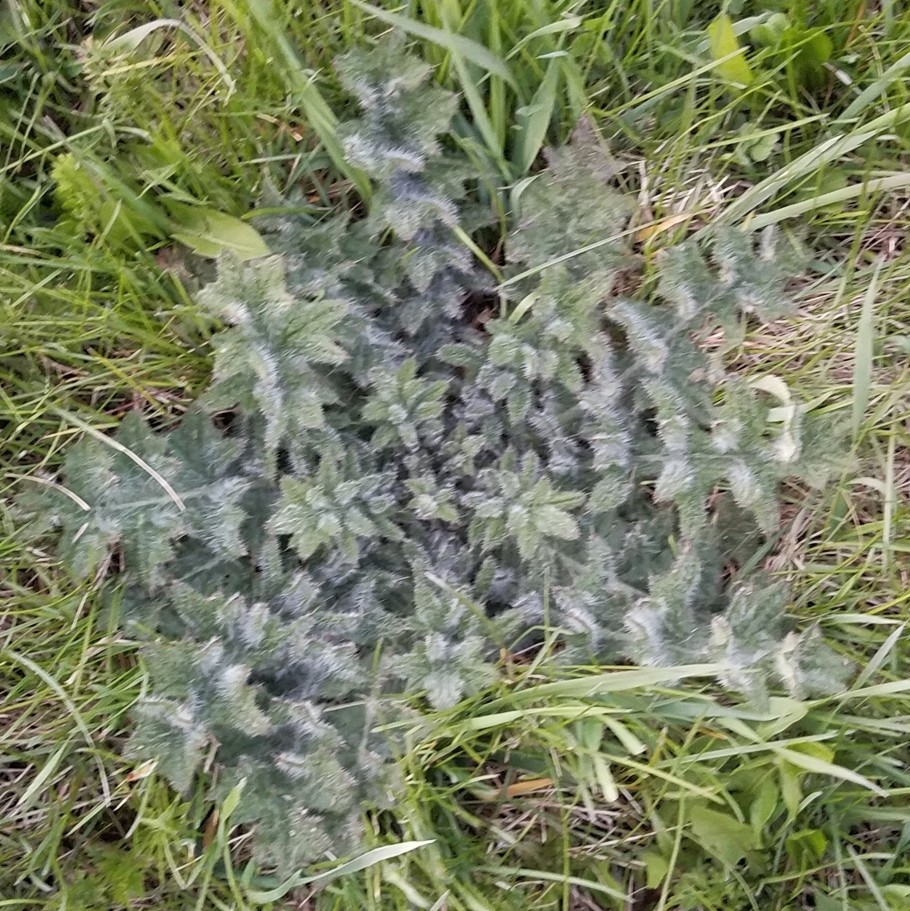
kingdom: Plantae
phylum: Tracheophyta
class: Magnoliopsida
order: Asterales
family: Asteraceae
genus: Cirsium
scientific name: Cirsium vulgare
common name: Bull thistle
